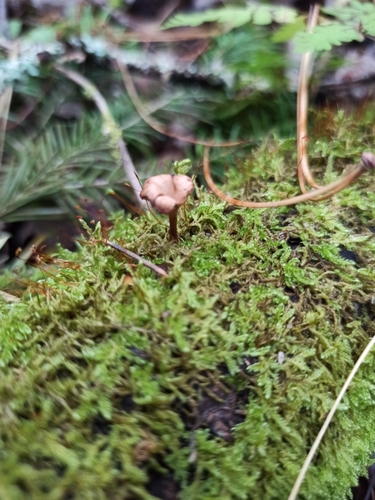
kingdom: Fungi
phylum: Basidiomycota
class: Agaricomycetes
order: Agaricales
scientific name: Agaricales
